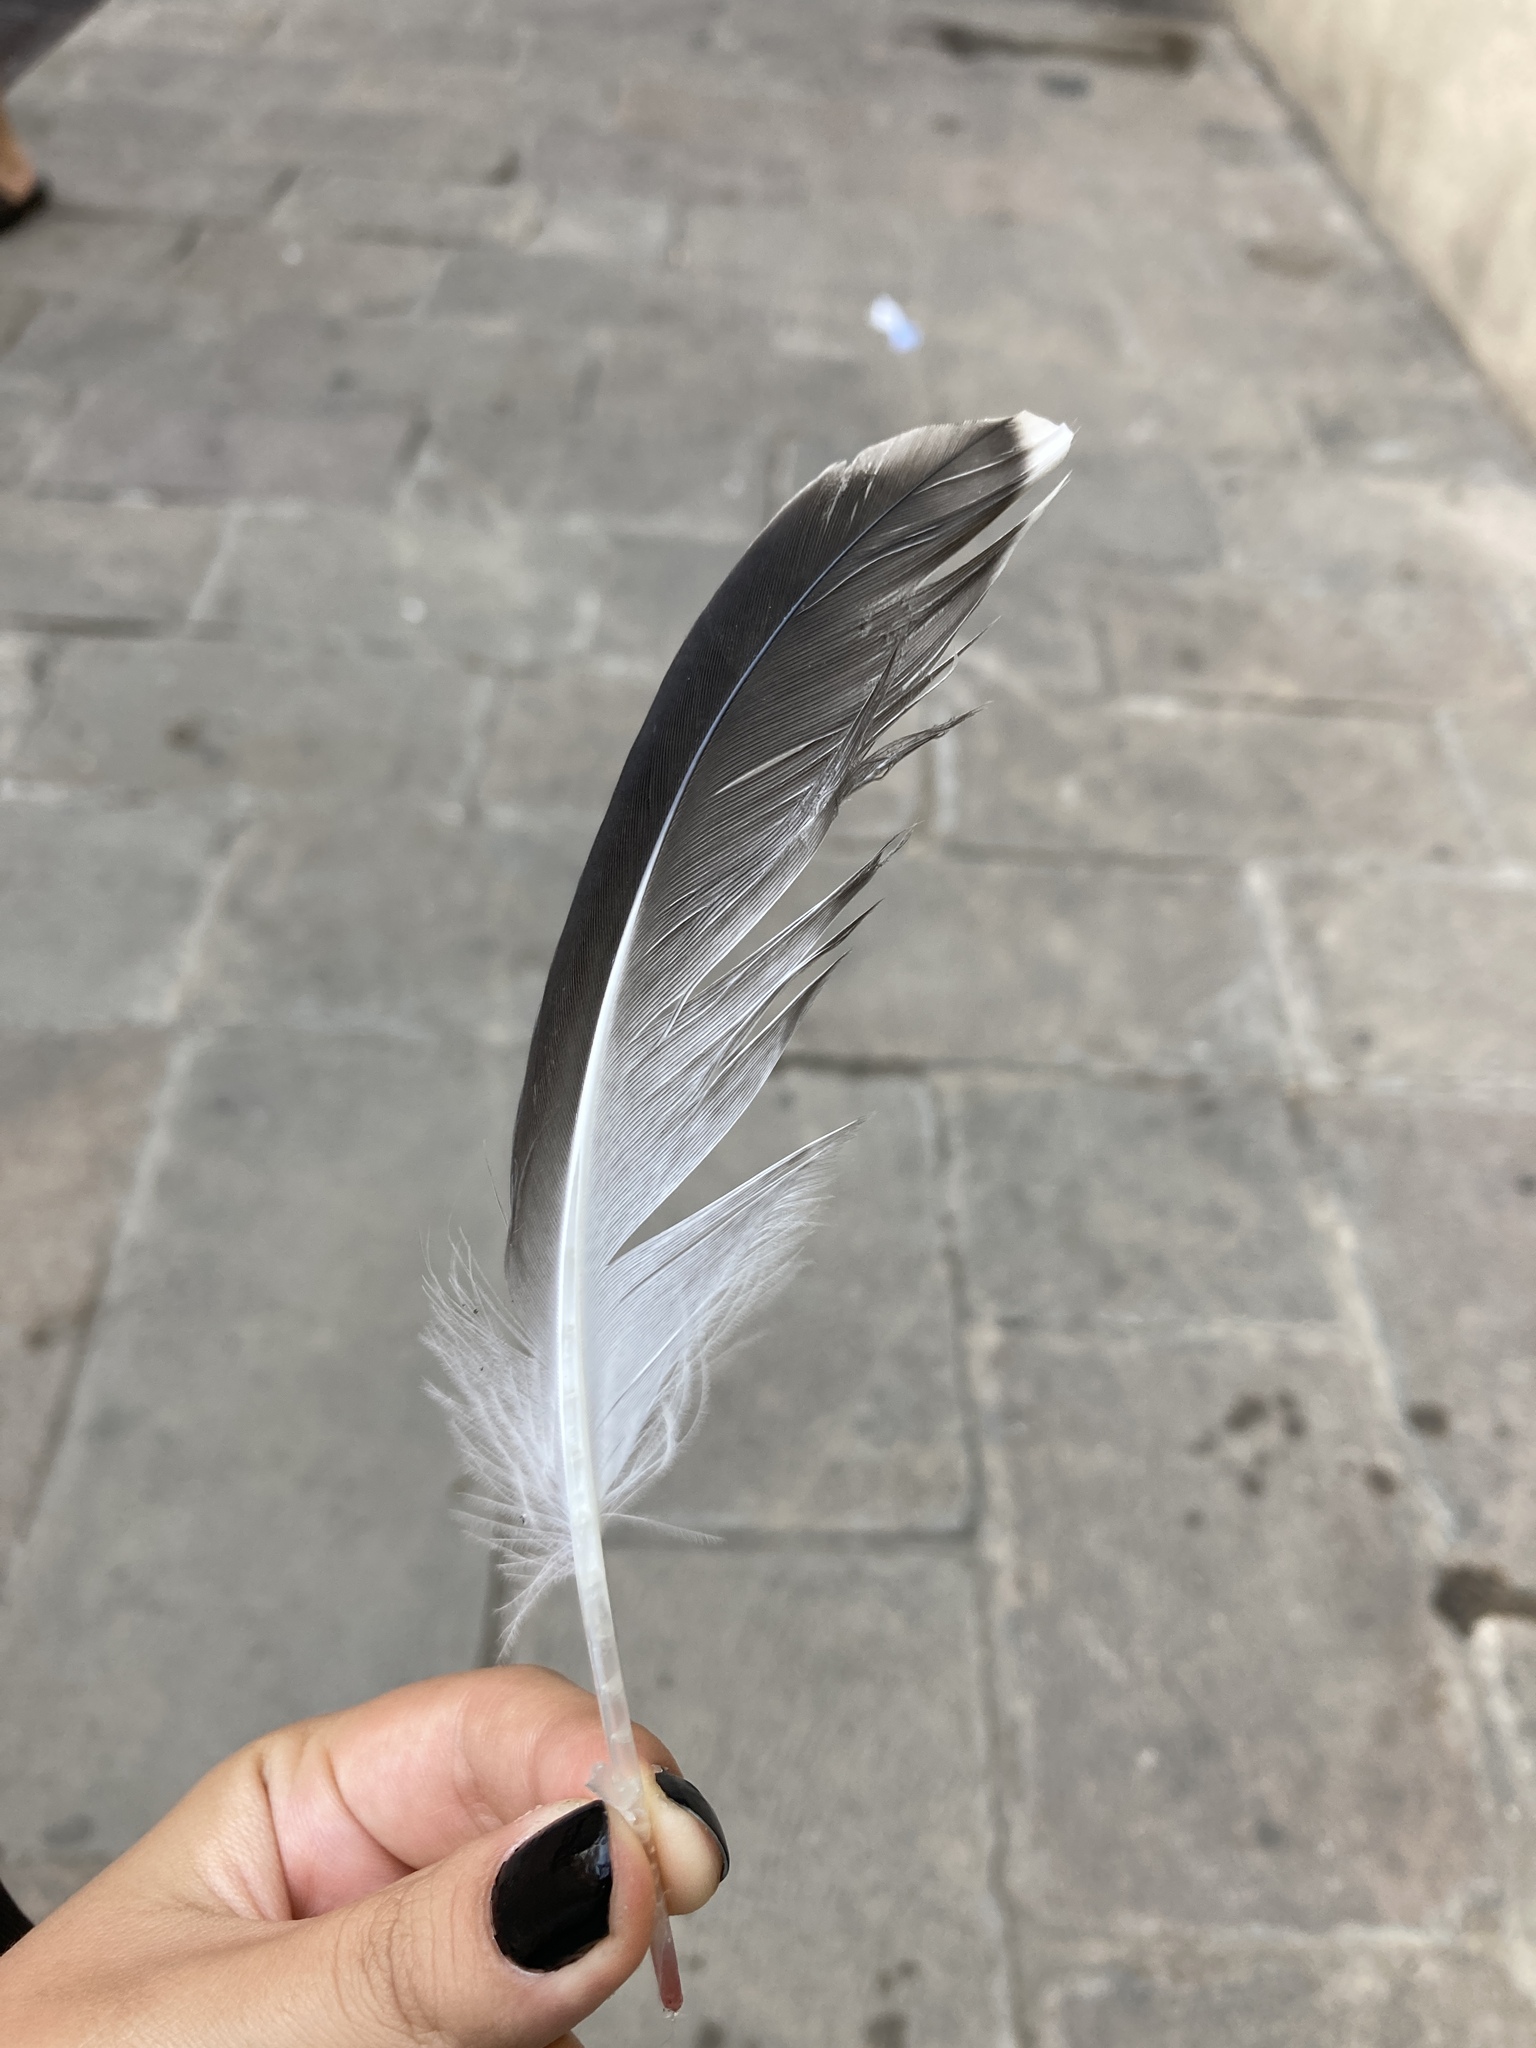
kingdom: Animalia
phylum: Chordata
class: Aves
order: Charadriiformes
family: Laridae
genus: Larus
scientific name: Larus michahellis
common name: Yellow-legged gull
